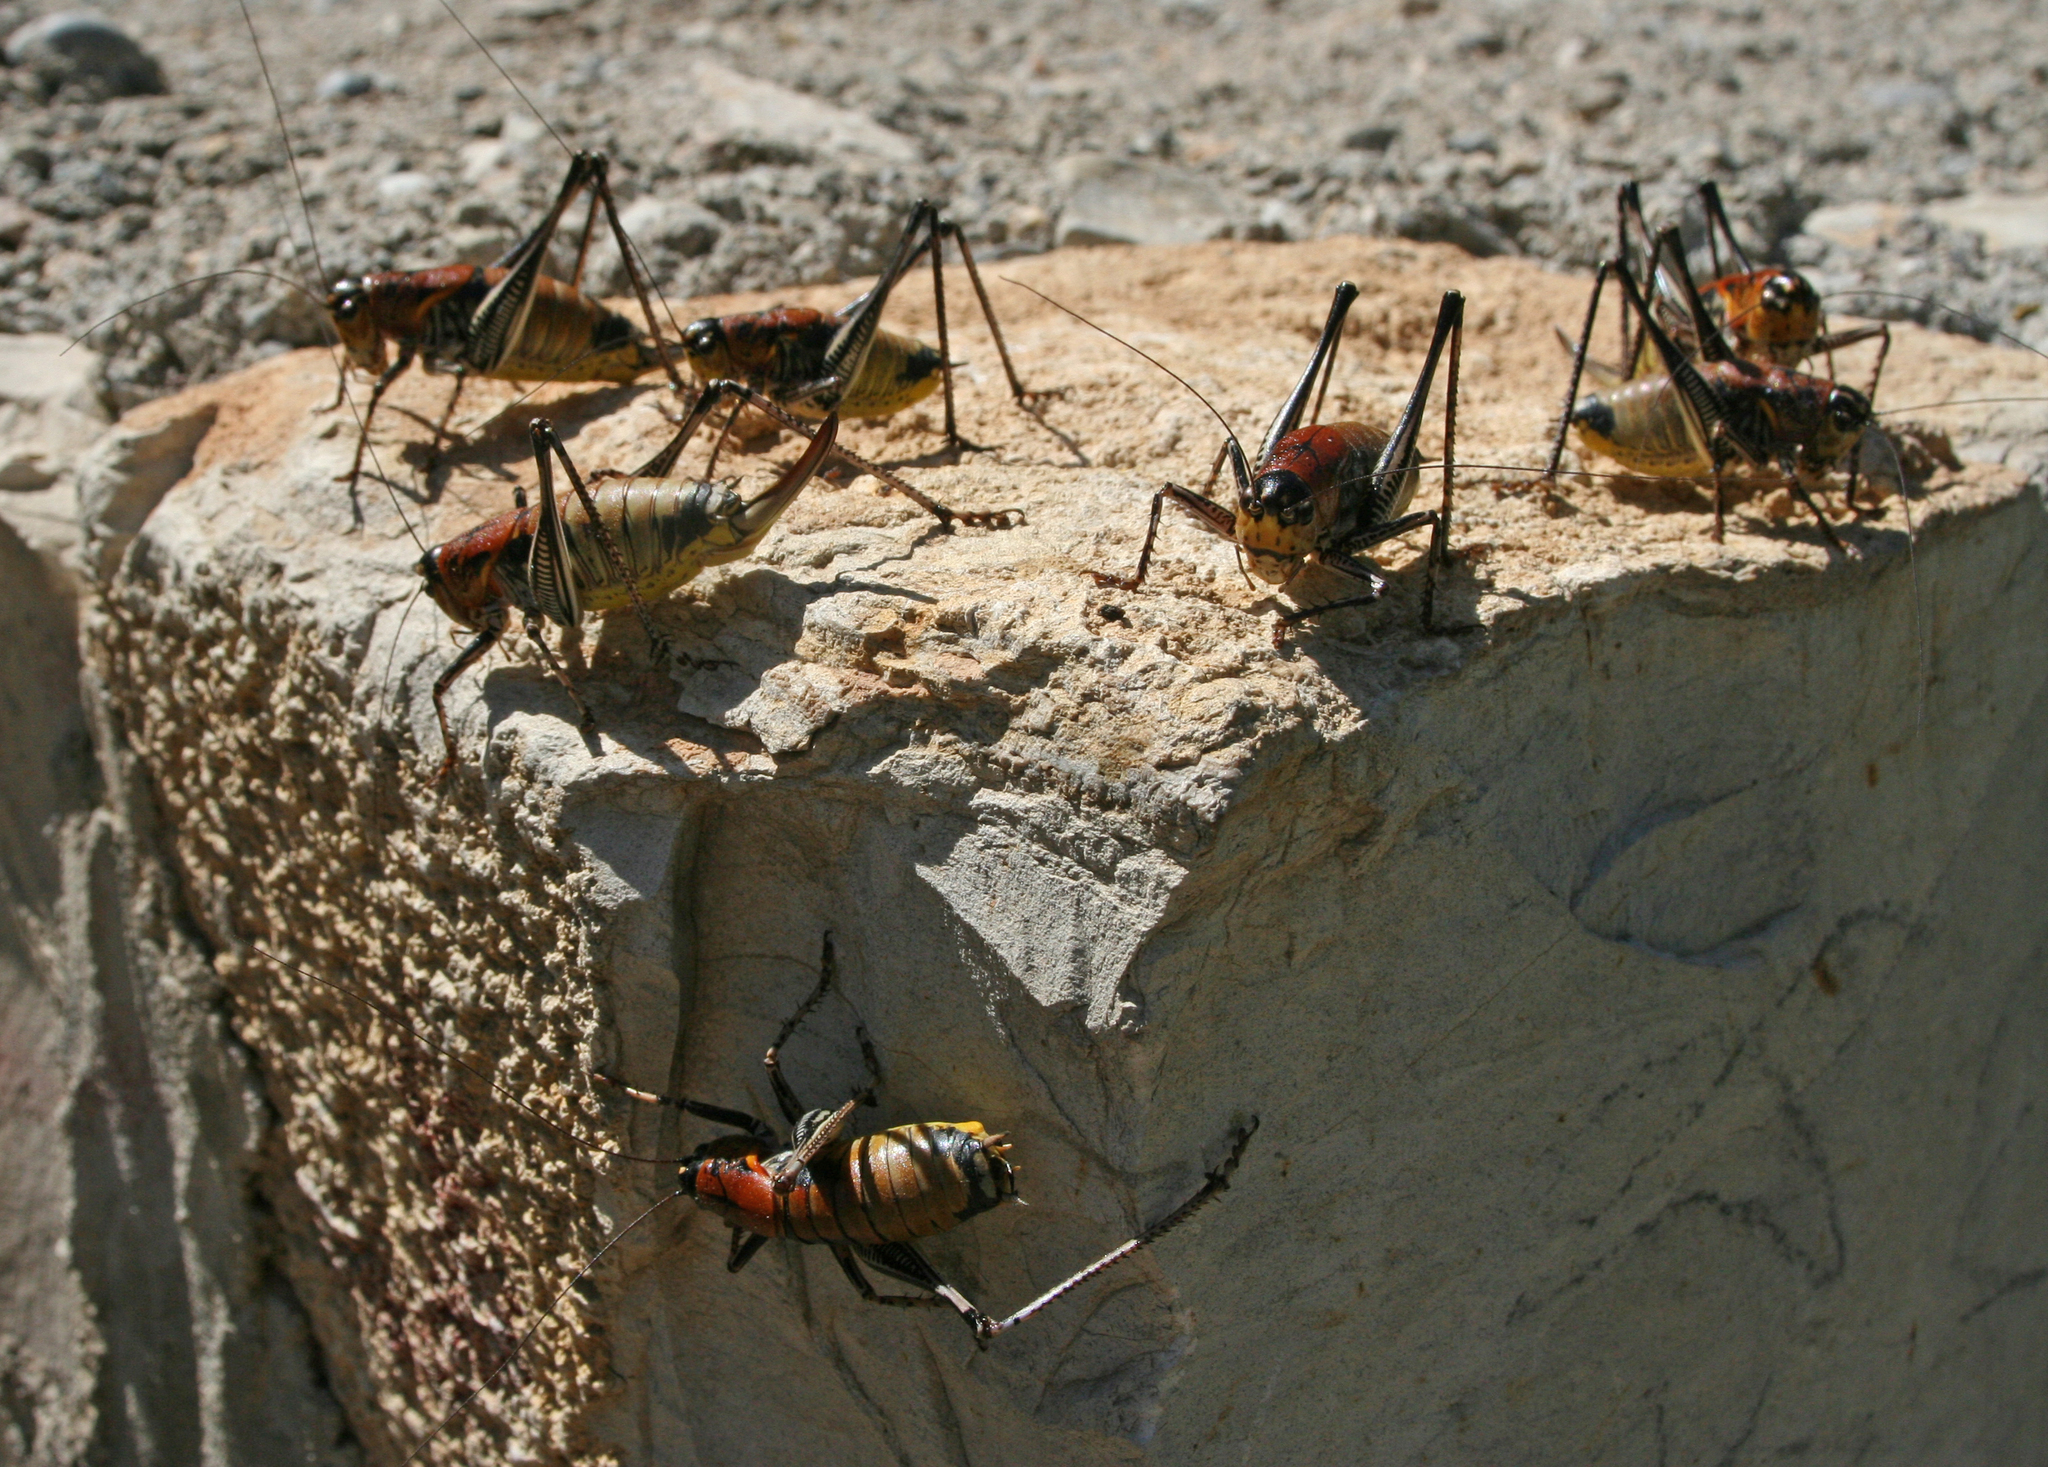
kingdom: Animalia
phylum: Arthropoda
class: Insecta
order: Orthoptera
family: Tettigoniidae
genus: Uvarovistia
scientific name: Uvarovistia satunini
